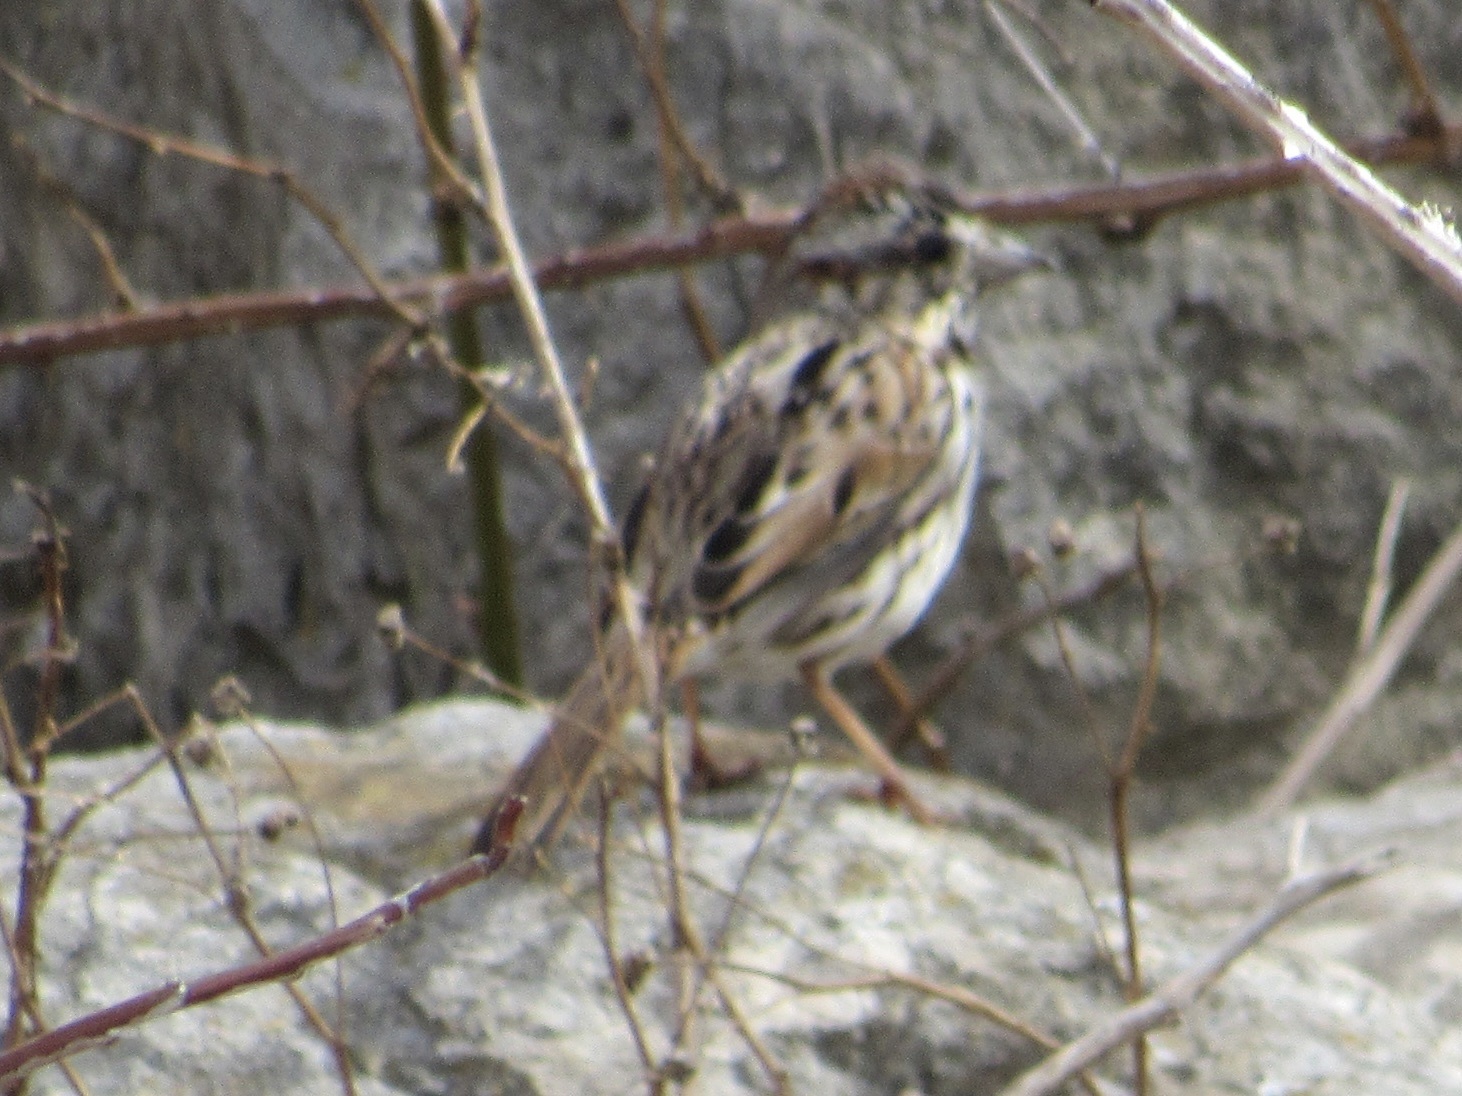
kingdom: Animalia
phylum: Chordata
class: Aves
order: Passeriformes
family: Passerellidae
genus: Melospiza
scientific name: Melospiza melodia
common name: Song sparrow
